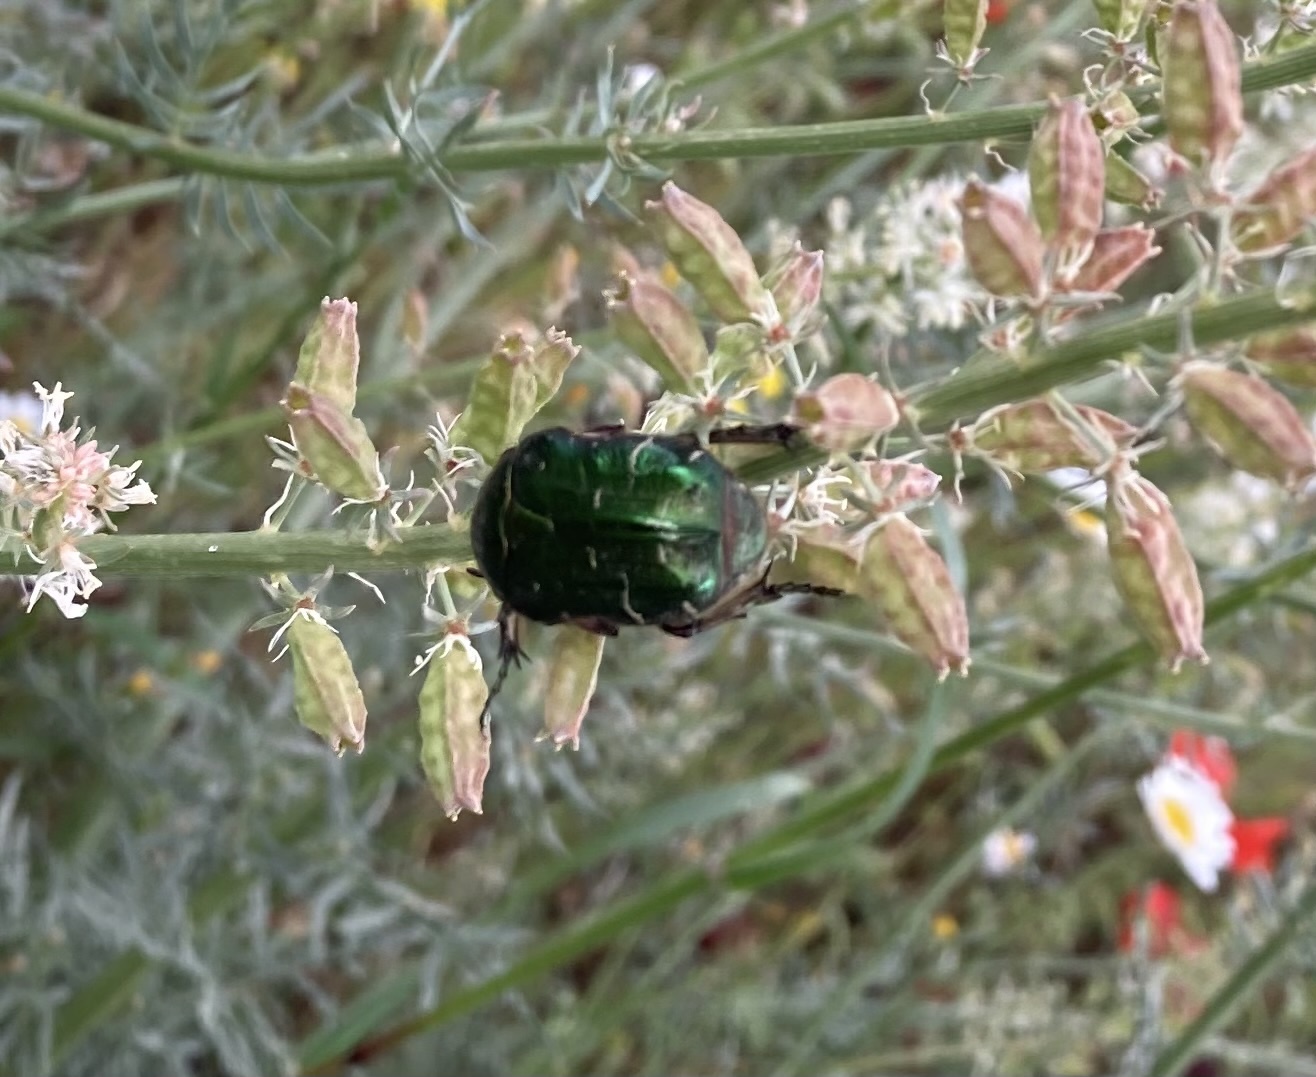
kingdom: Animalia
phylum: Arthropoda
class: Insecta
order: Coleoptera
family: Scarabaeidae
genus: Cetonia
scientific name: Cetonia aurata
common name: Rose chafer
